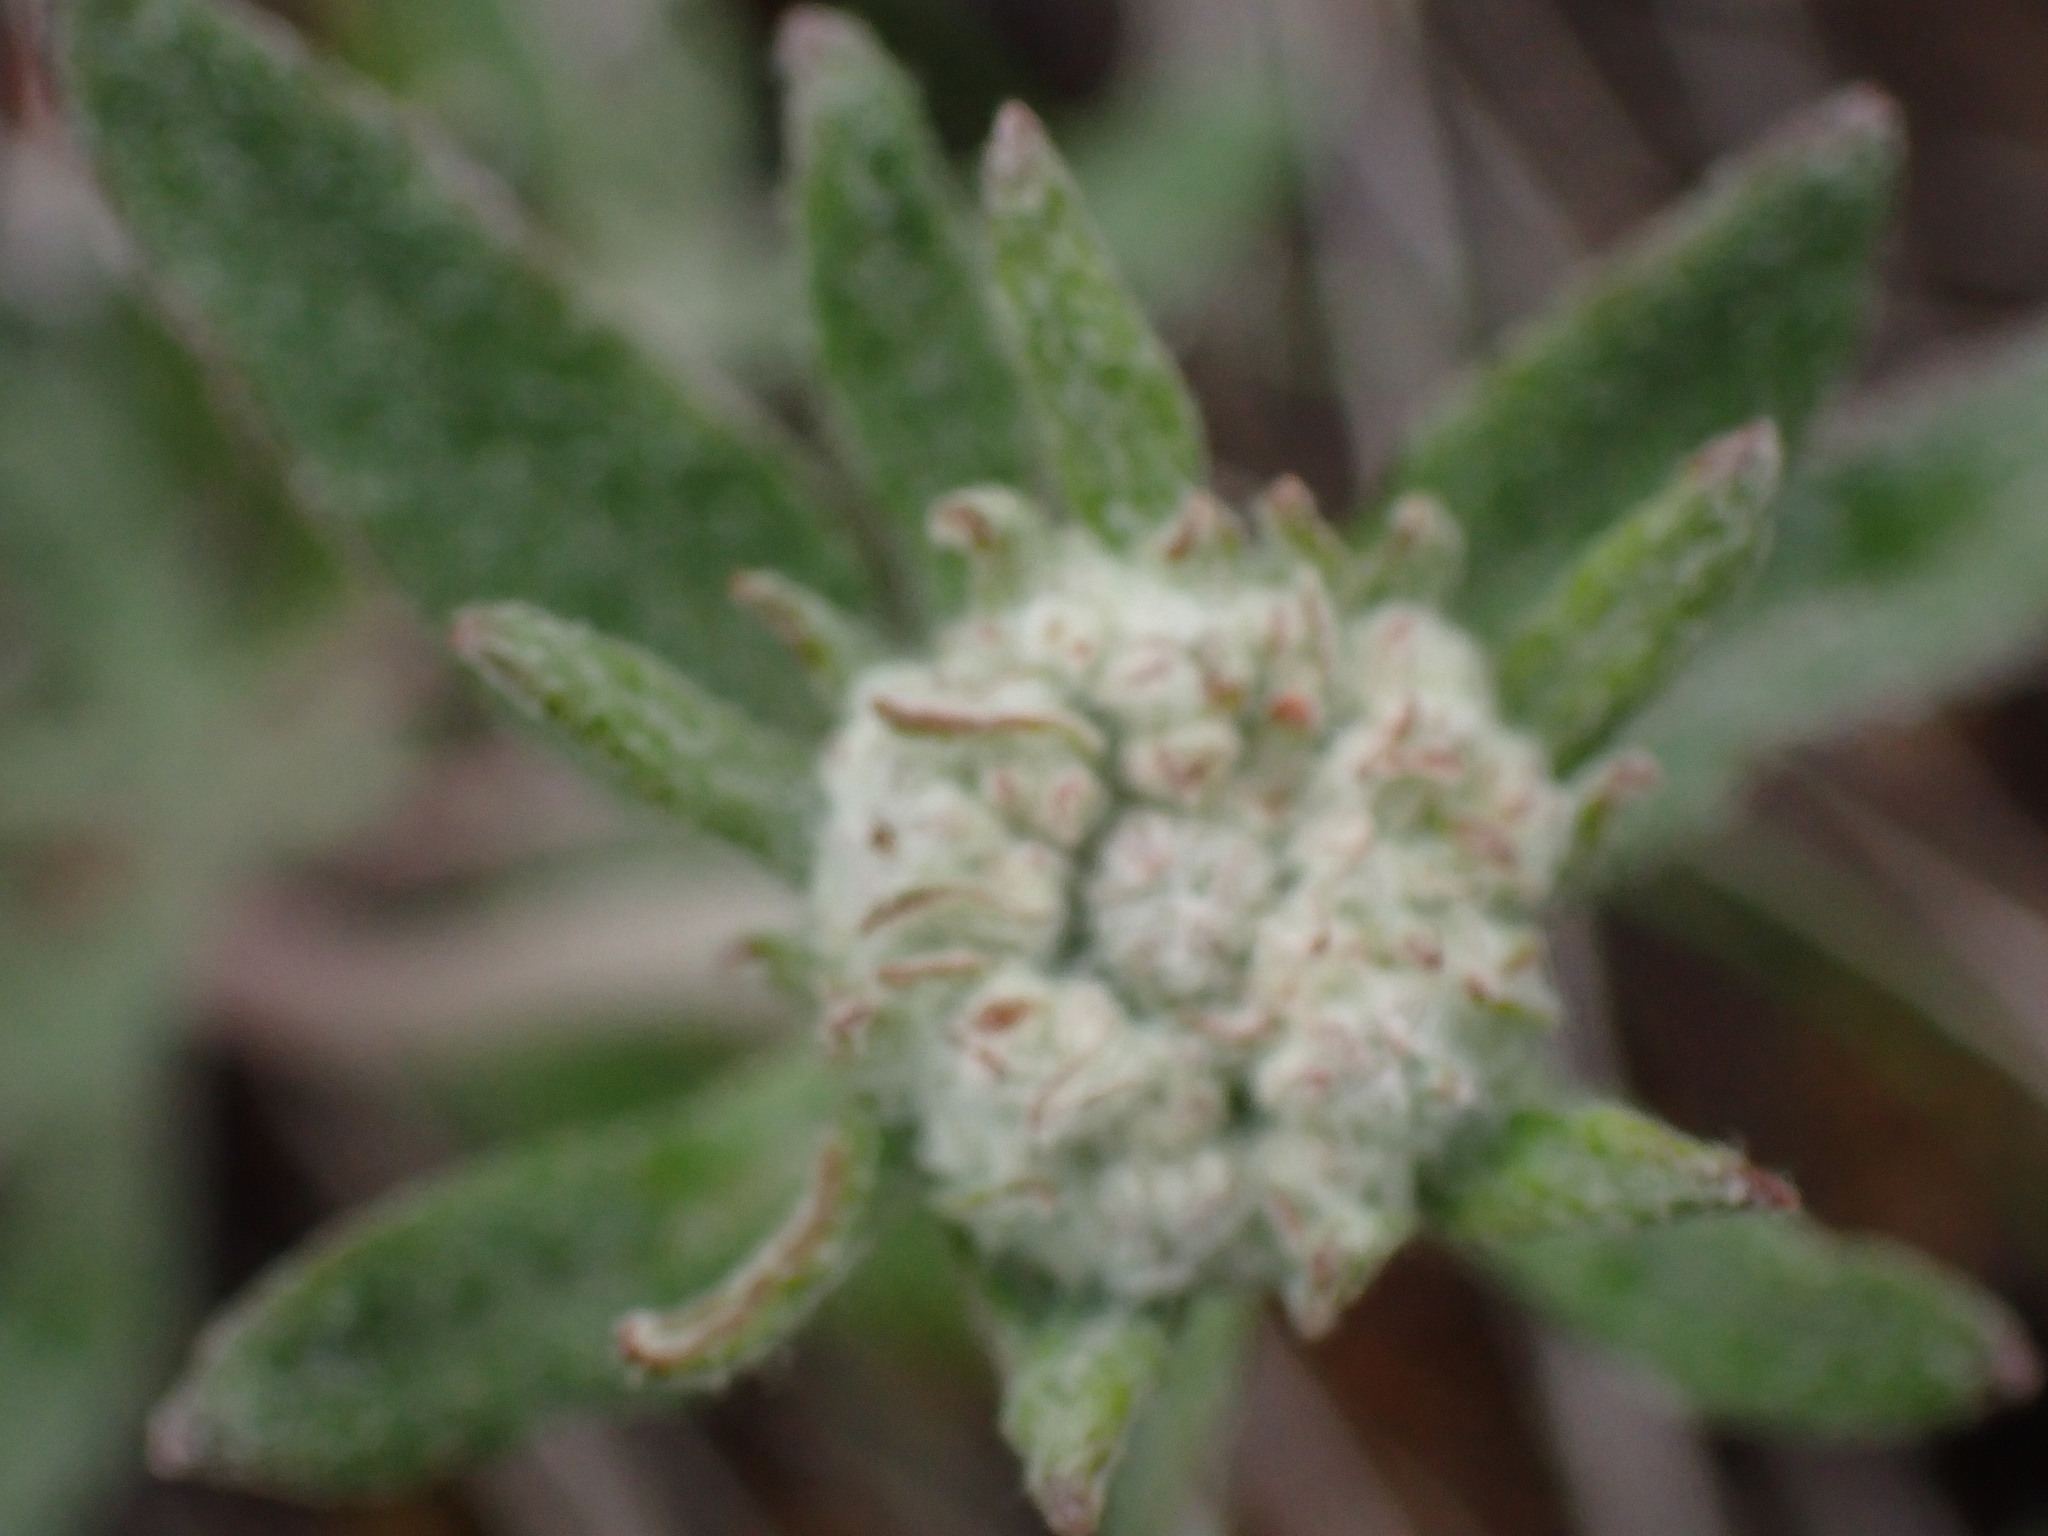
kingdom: Plantae
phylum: Tracheophyta
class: Magnoliopsida
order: Caryophyllales
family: Polygonaceae
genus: Eriogonum
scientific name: Eriogonum heracleoides
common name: Wyeth's buckwheat
